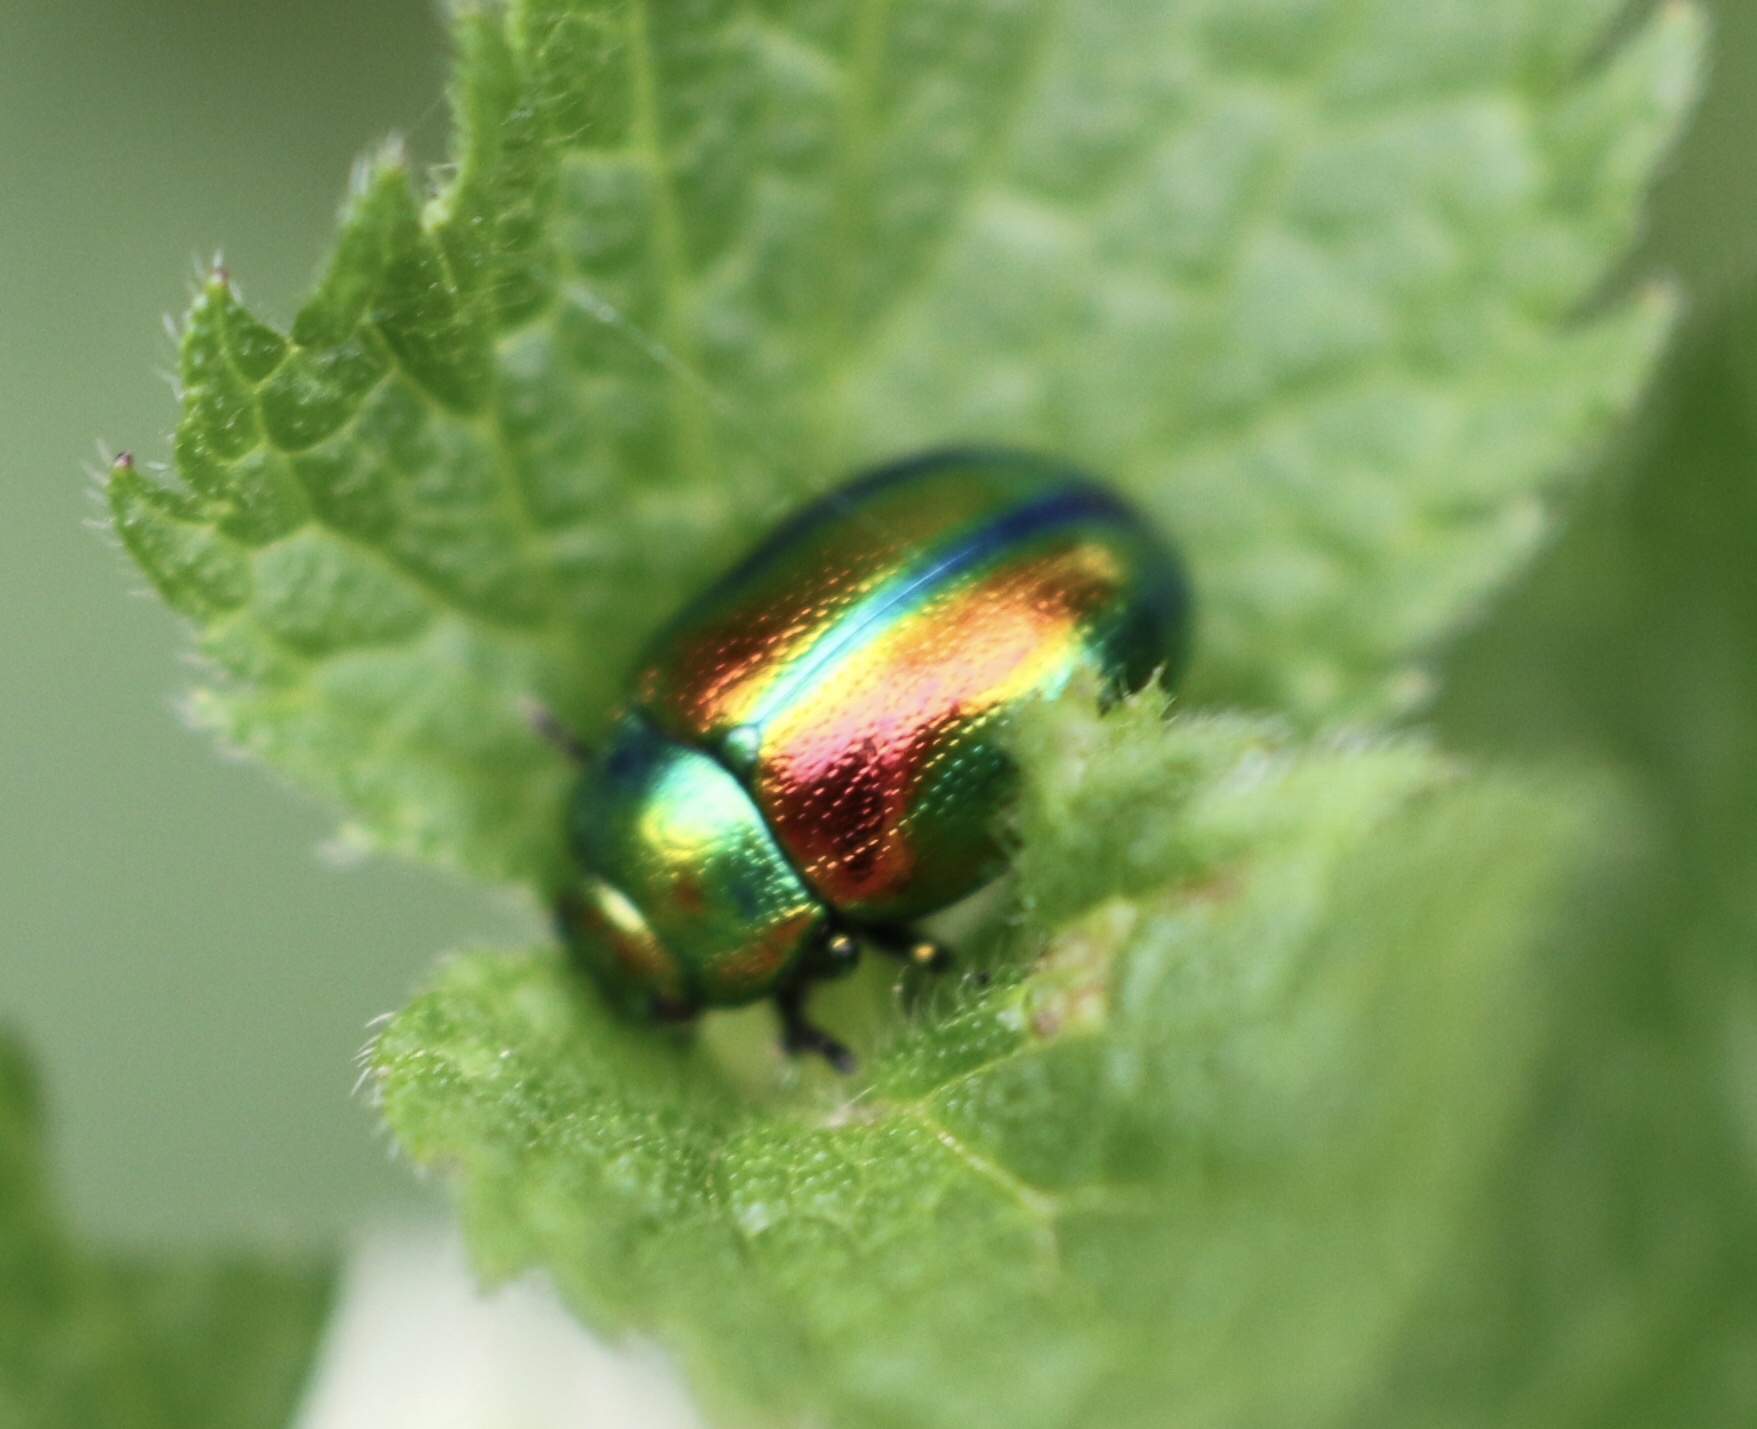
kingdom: Animalia
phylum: Arthropoda
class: Insecta
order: Coleoptera
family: Chrysomelidae
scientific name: Chrysomelidae
